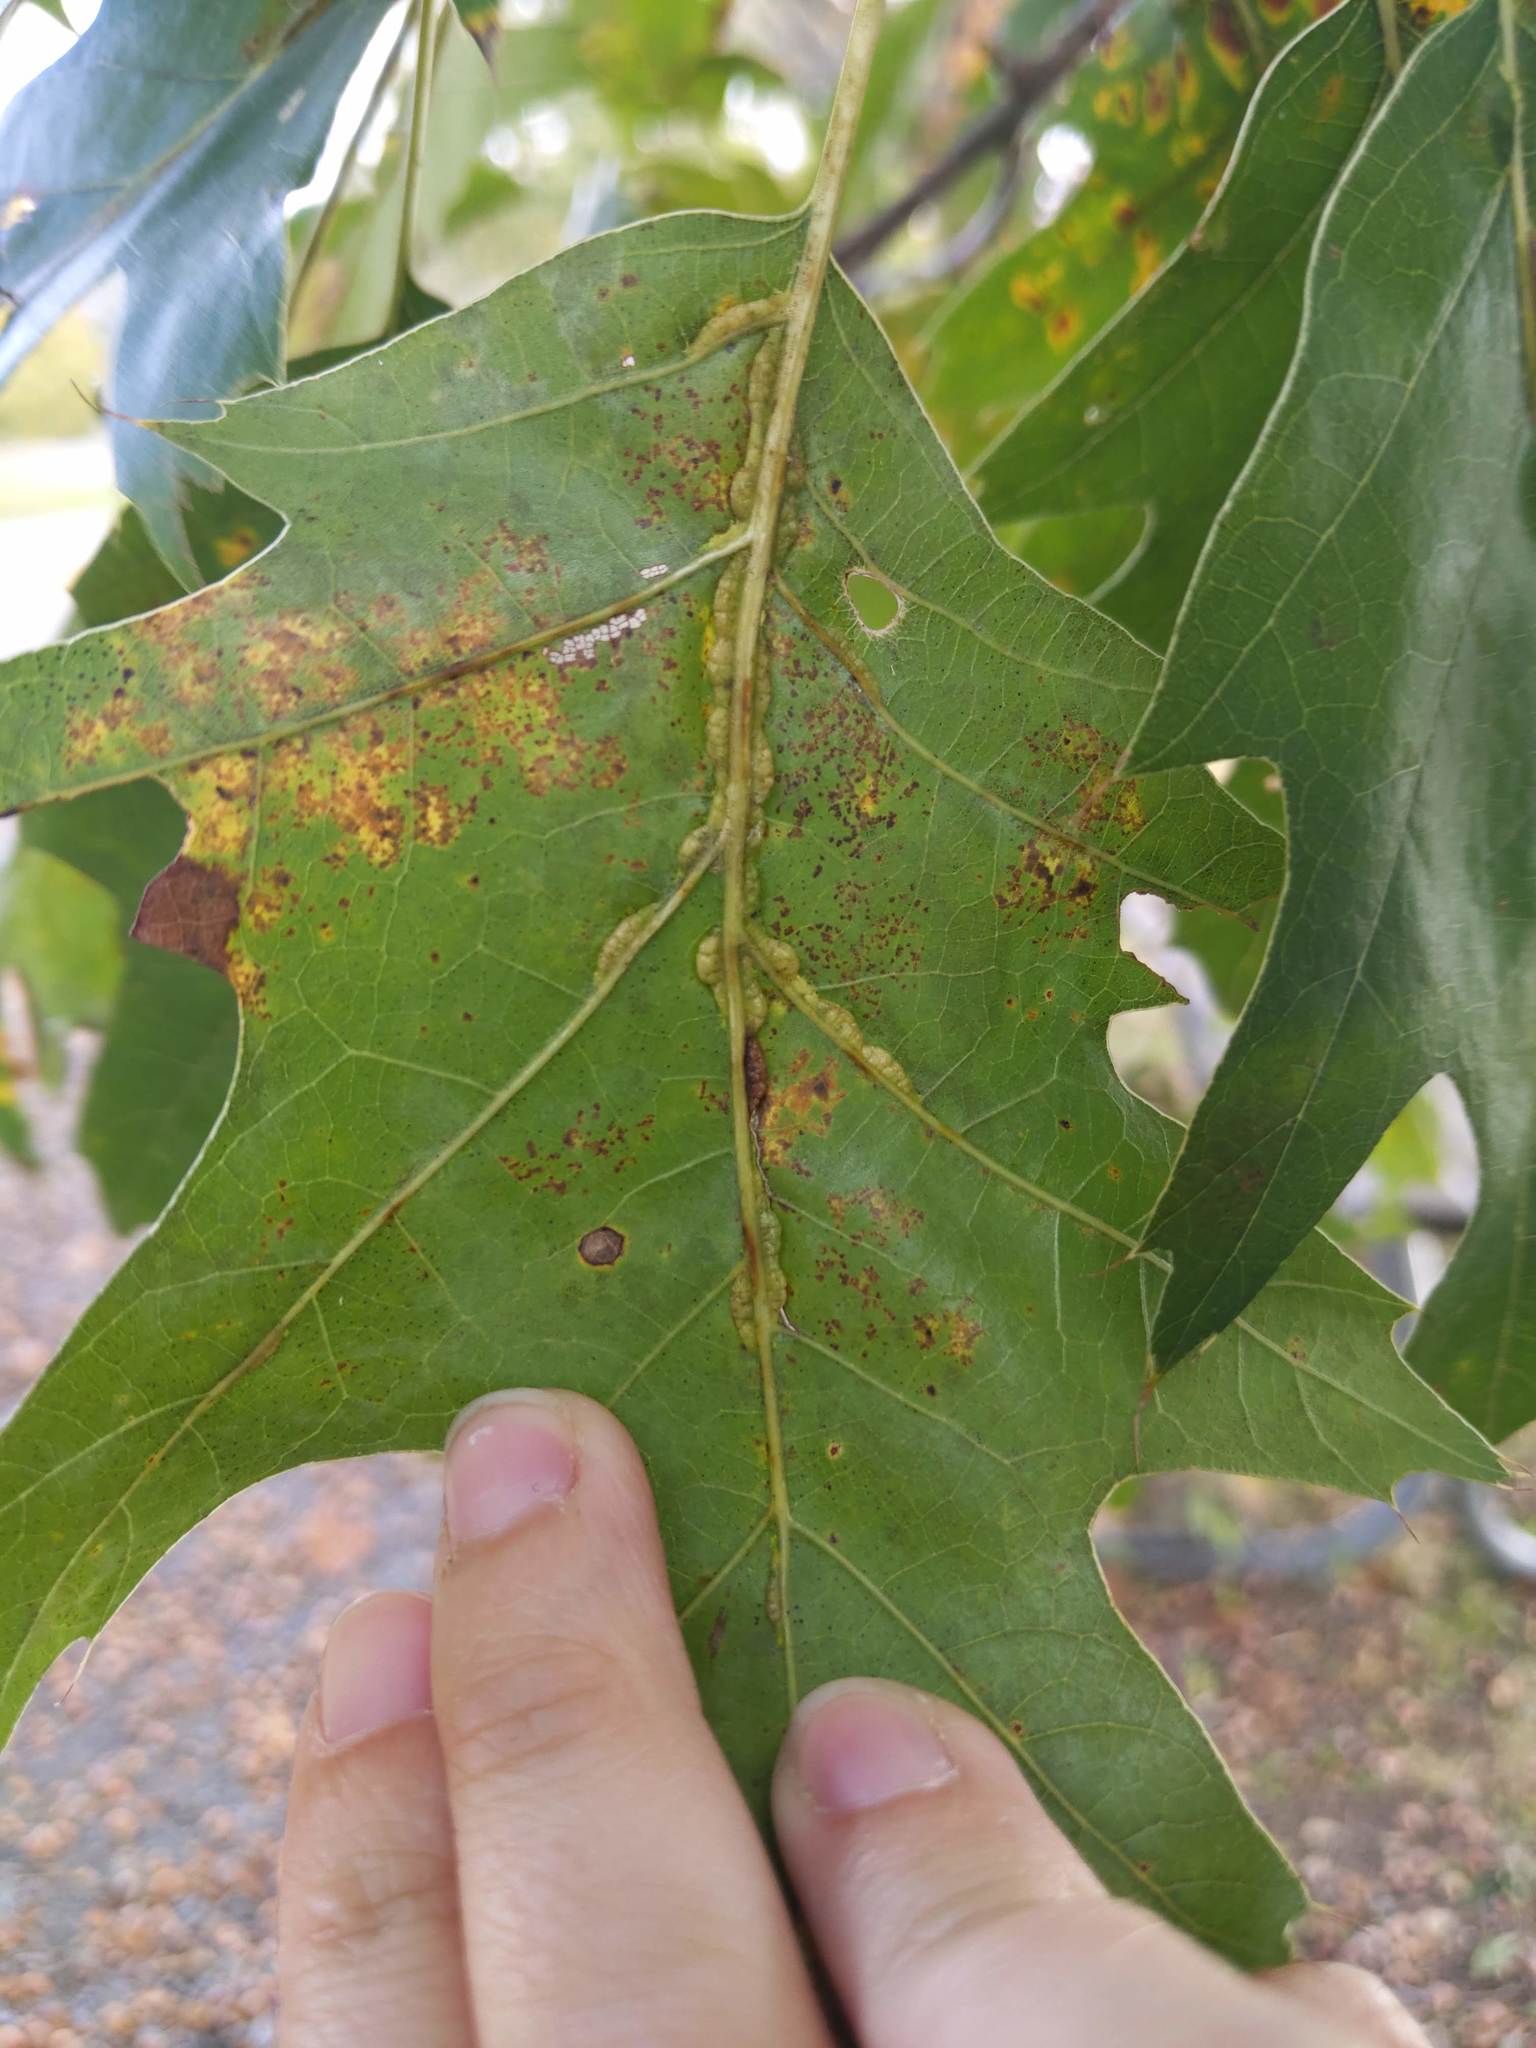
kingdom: Animalia
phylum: Arthropoda
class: Insecta
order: Diptera
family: Cecidomyiidae
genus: Macrodiplosis
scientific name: Macrodiplosis q-orucum
